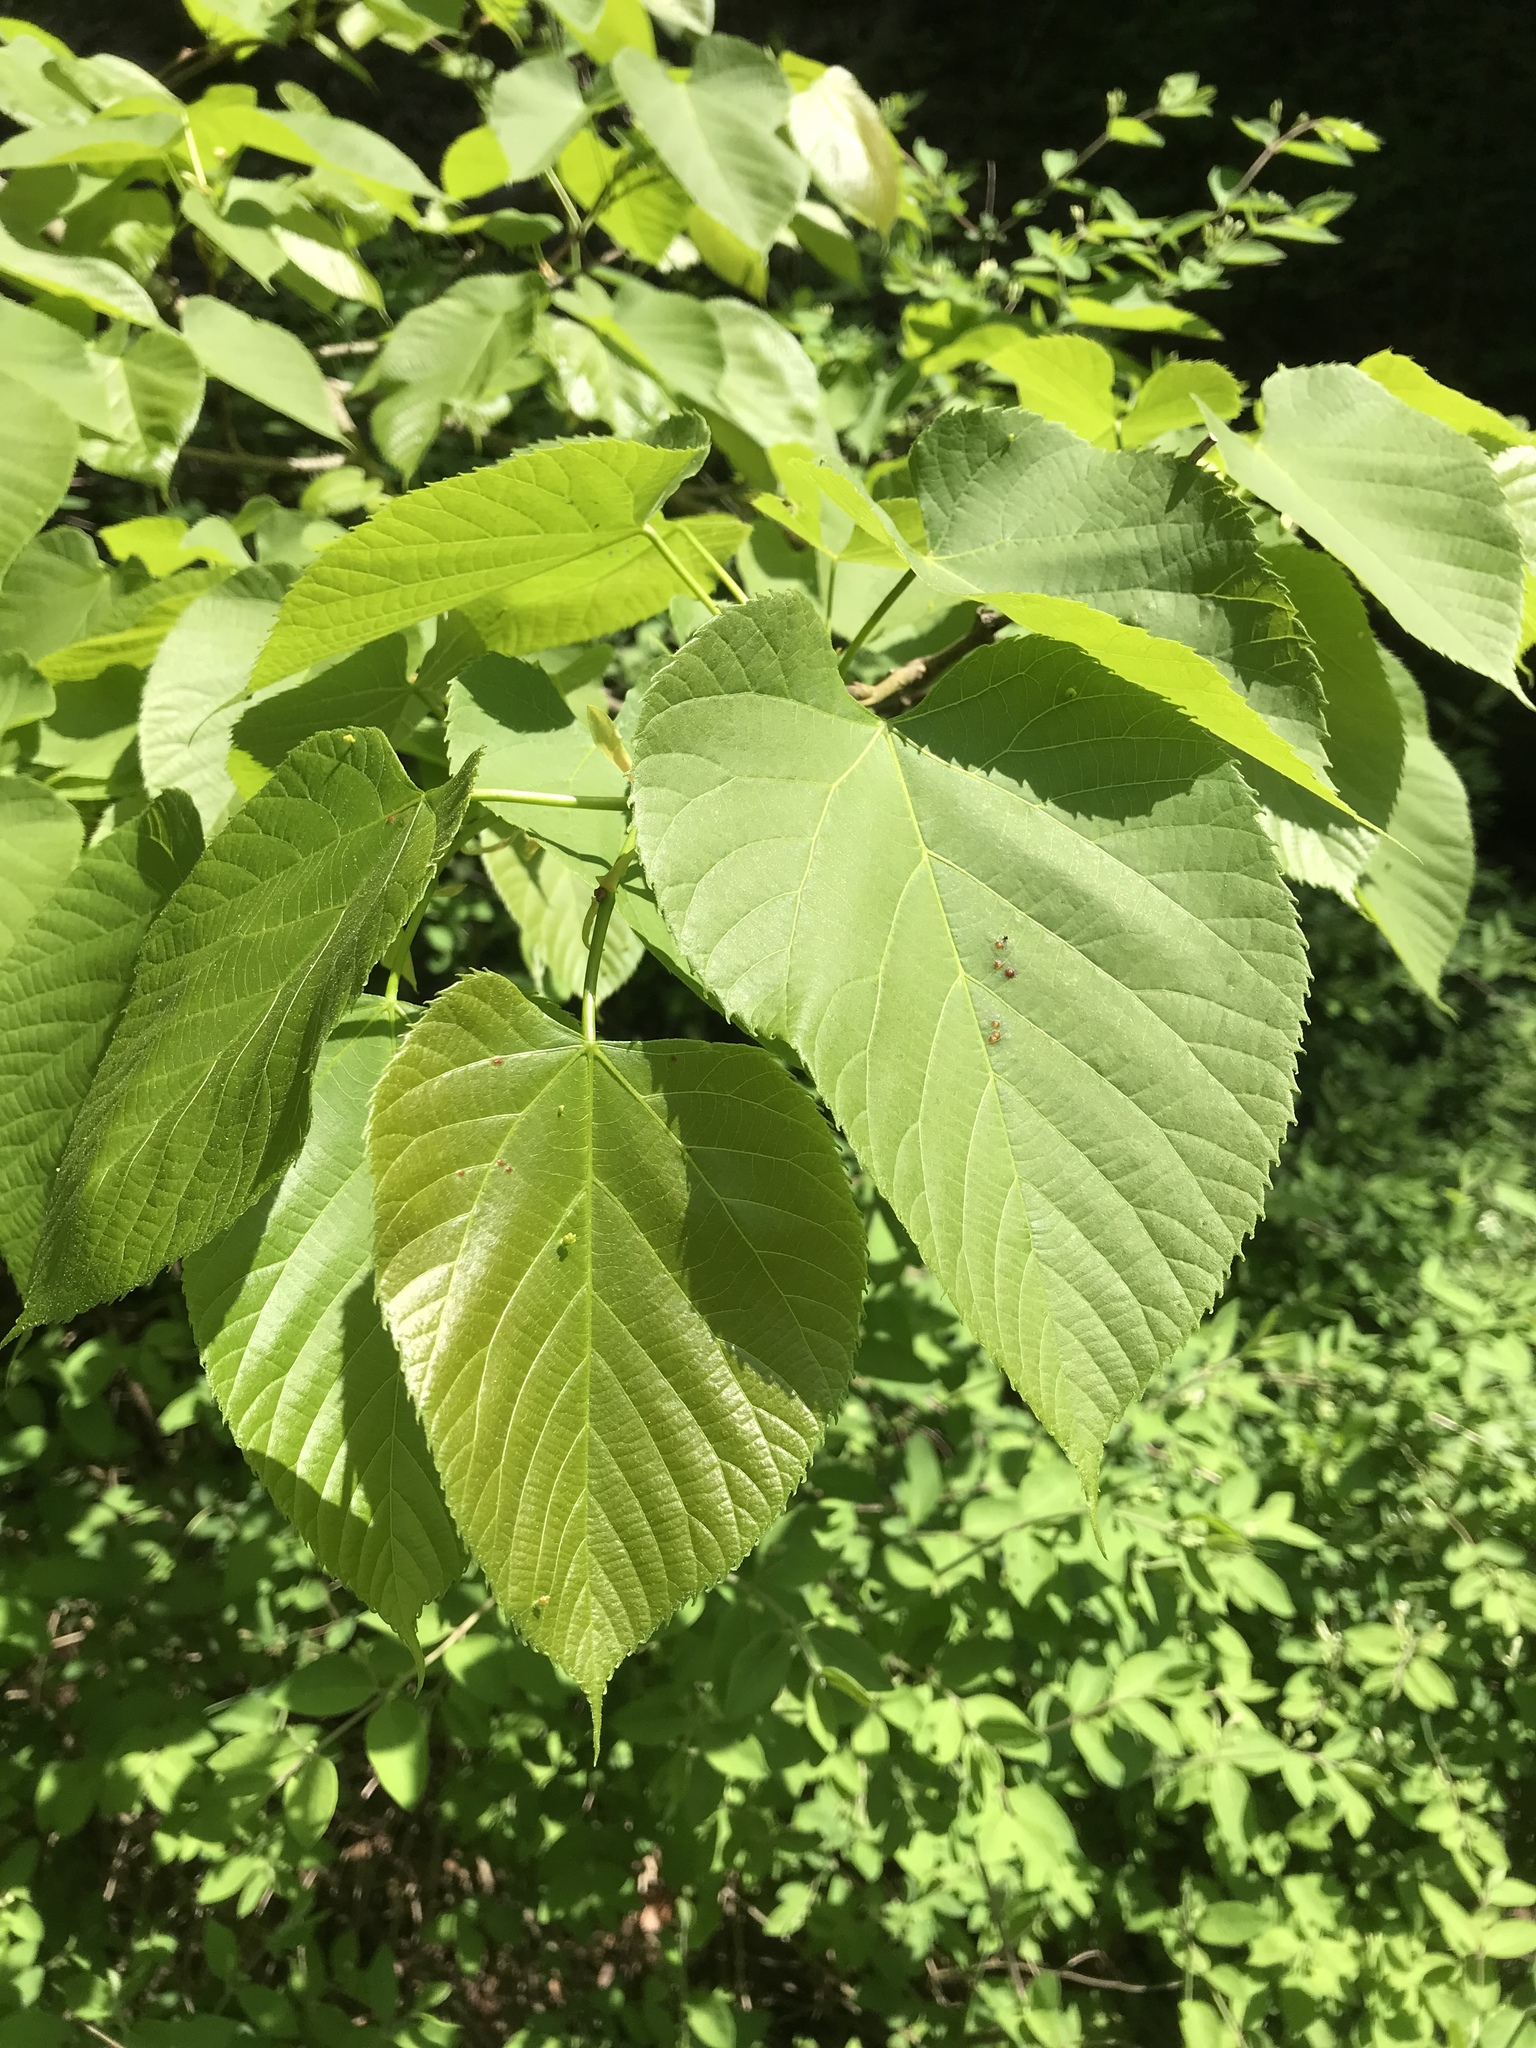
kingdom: Plantae
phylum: Tracheophyta
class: Magnoliopsida
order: Malvales
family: Malvaceae
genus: Tilia
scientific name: Tilia americana
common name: Basswood
